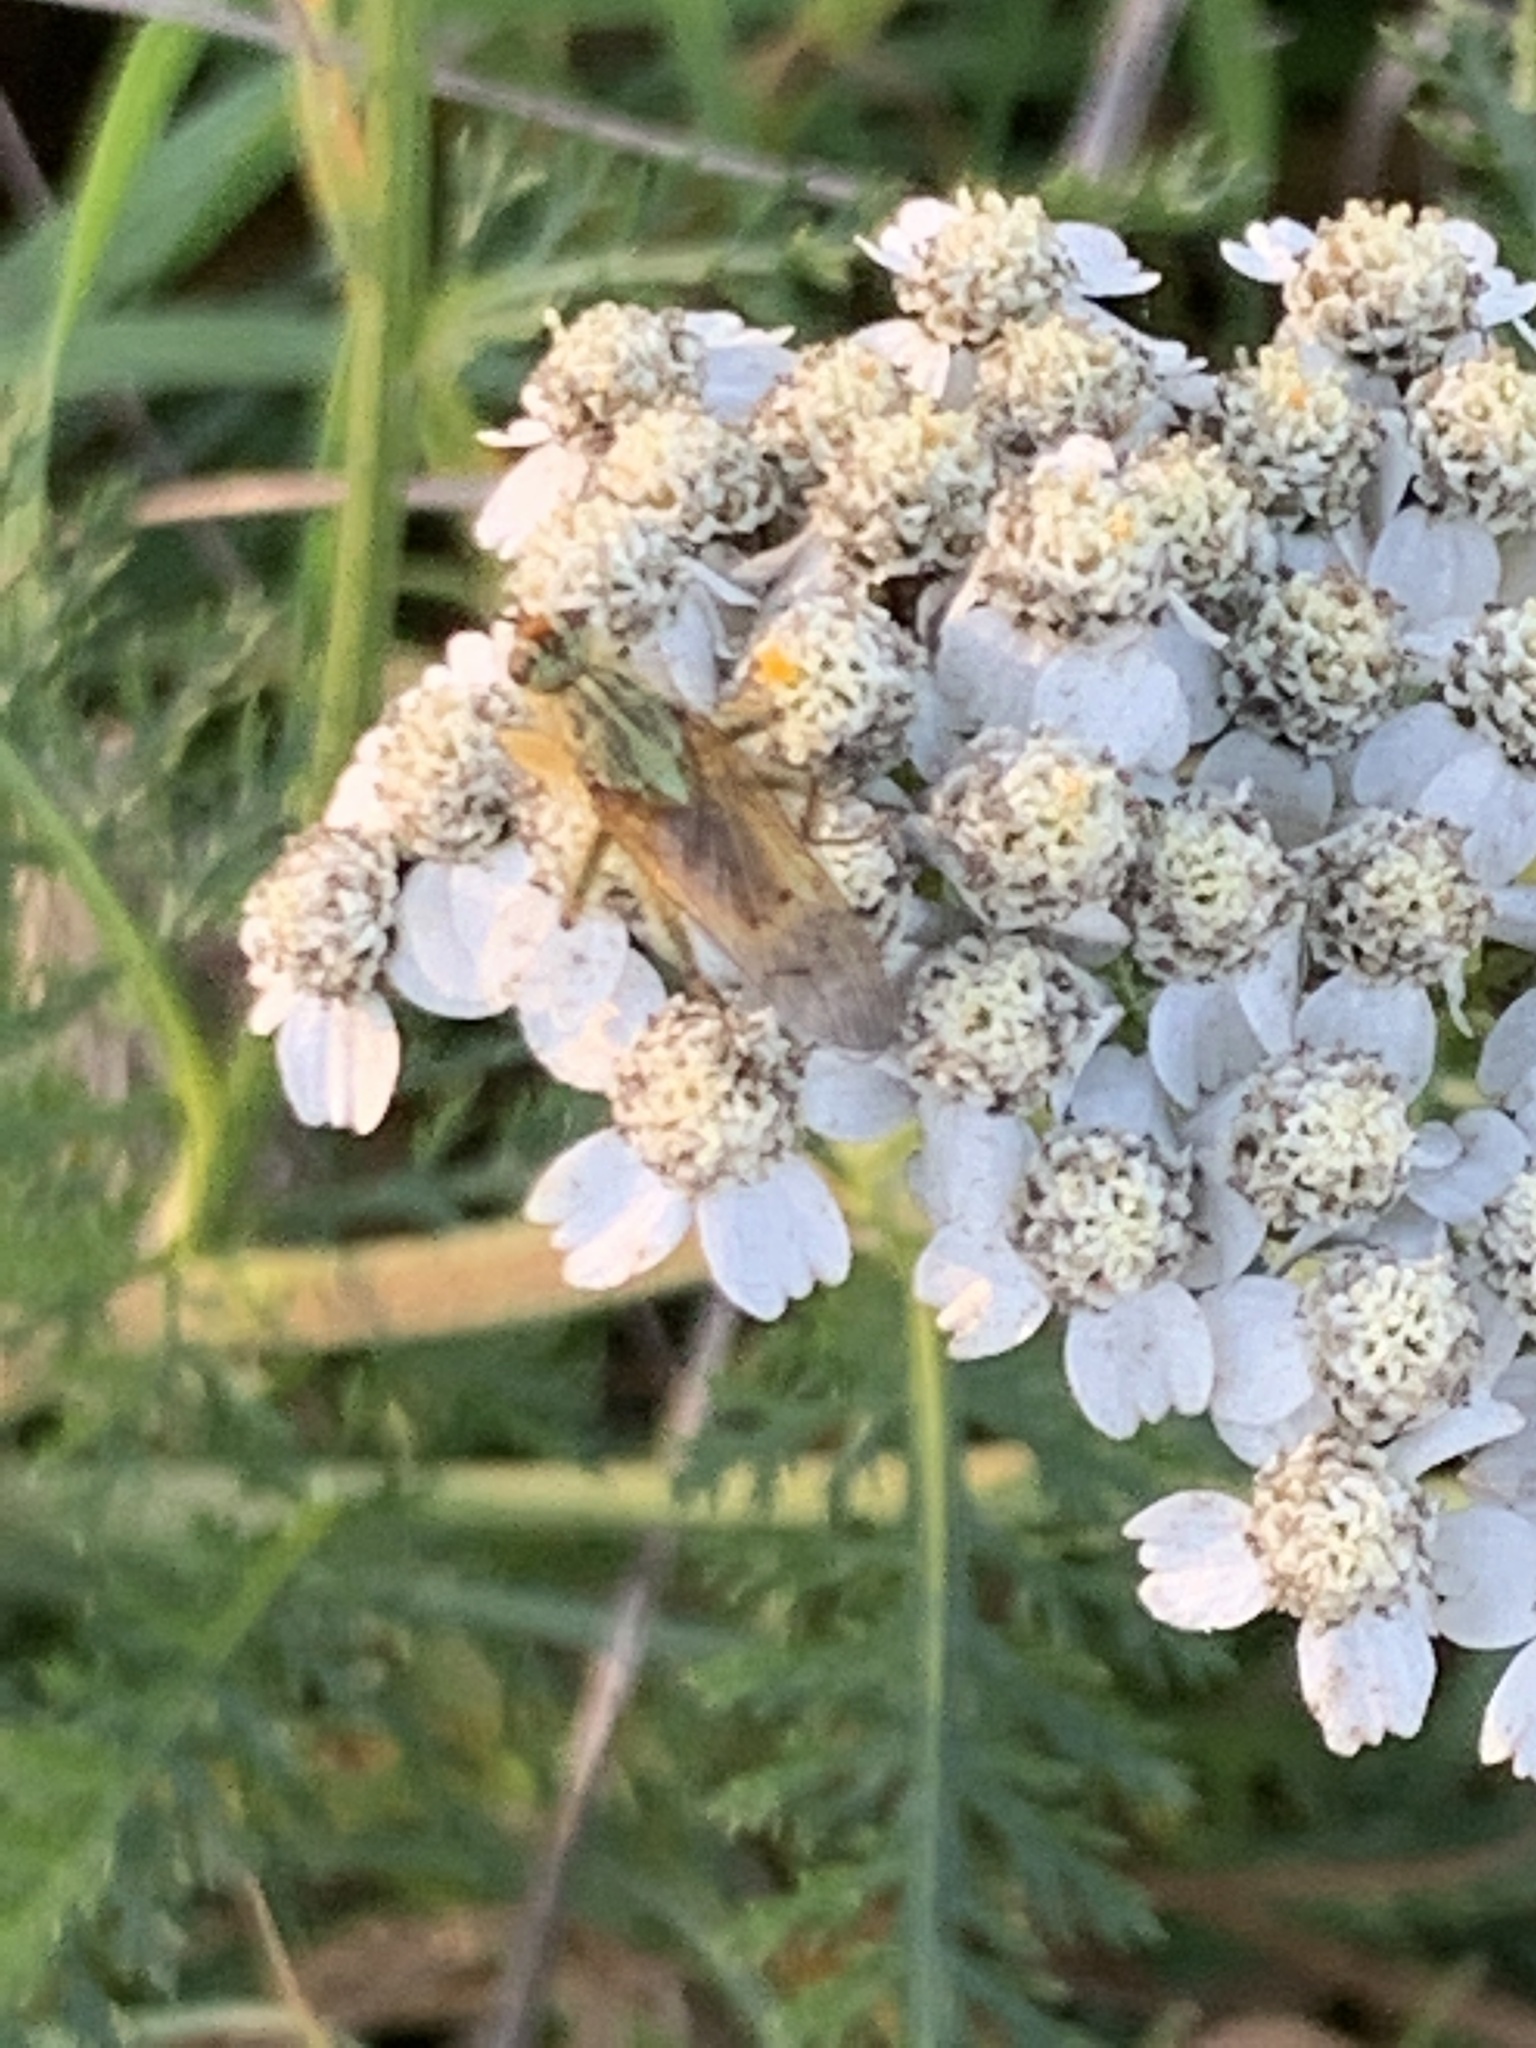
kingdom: Animalia
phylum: Arthropoda
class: Insecta
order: Diptera
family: Scathophagidae
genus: Scathophaga
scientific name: Scathophaga stercoraria
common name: Yellow dung fly
